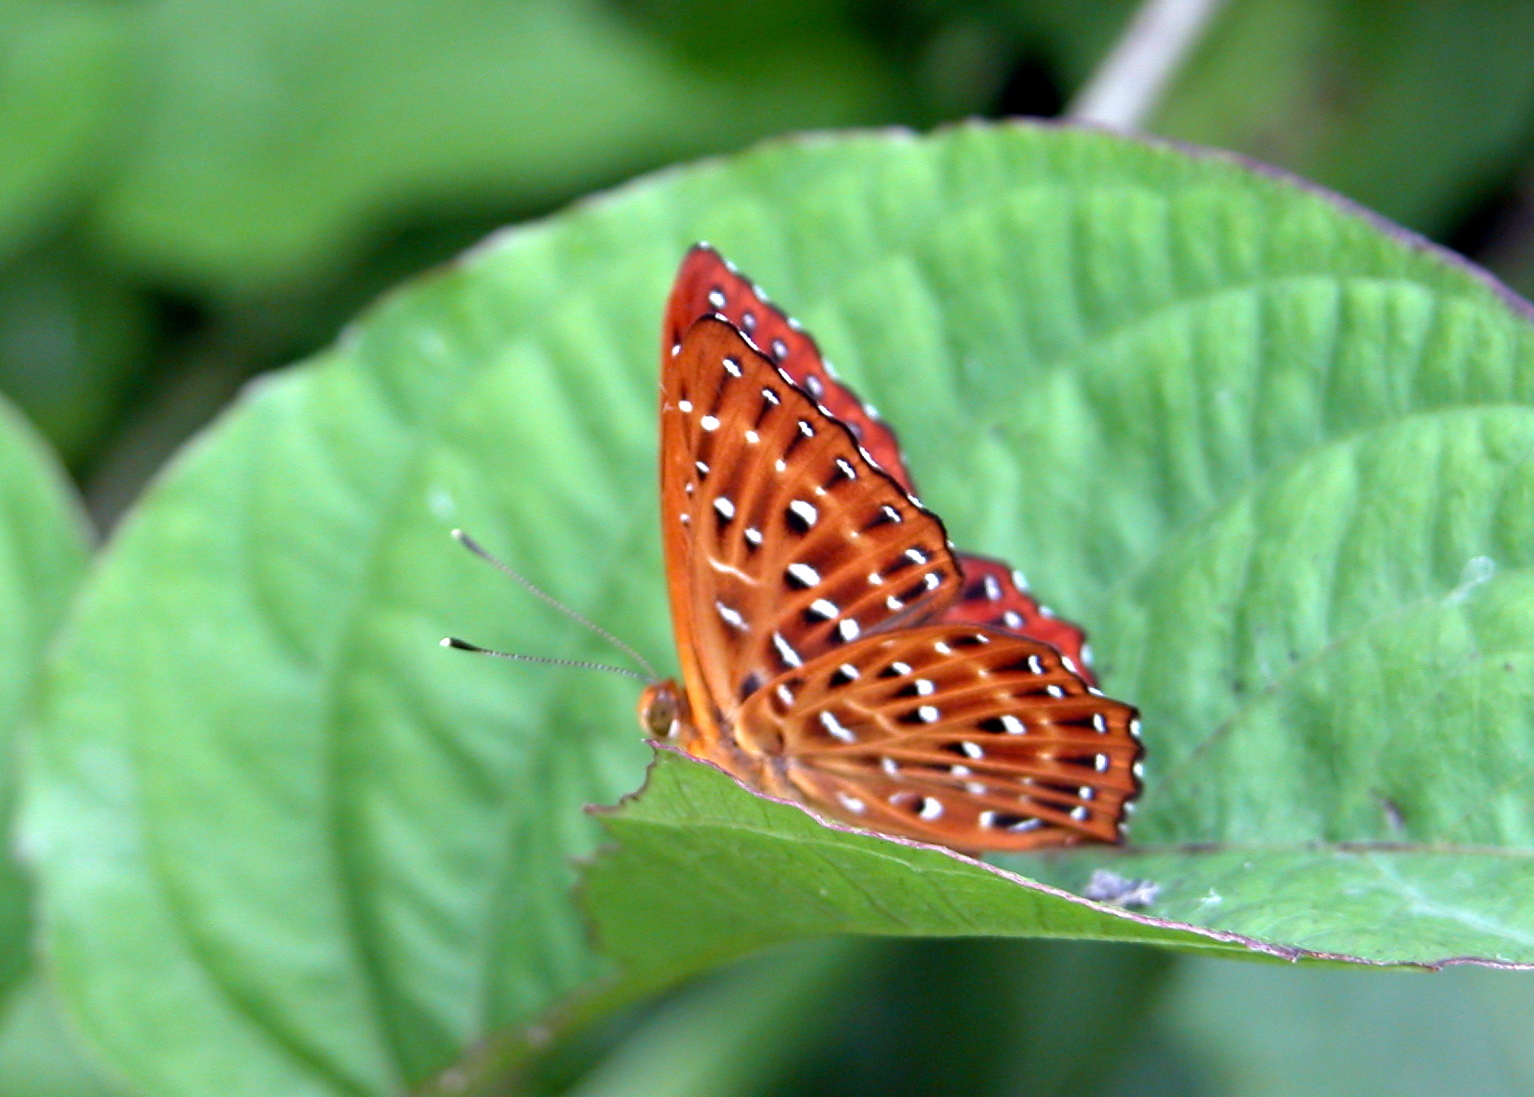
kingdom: Animalia
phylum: Arthropoda
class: Insecta
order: Lepidoptera
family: Riodinidae
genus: Zemeros
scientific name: Zemeros flegyas
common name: Punchinello
